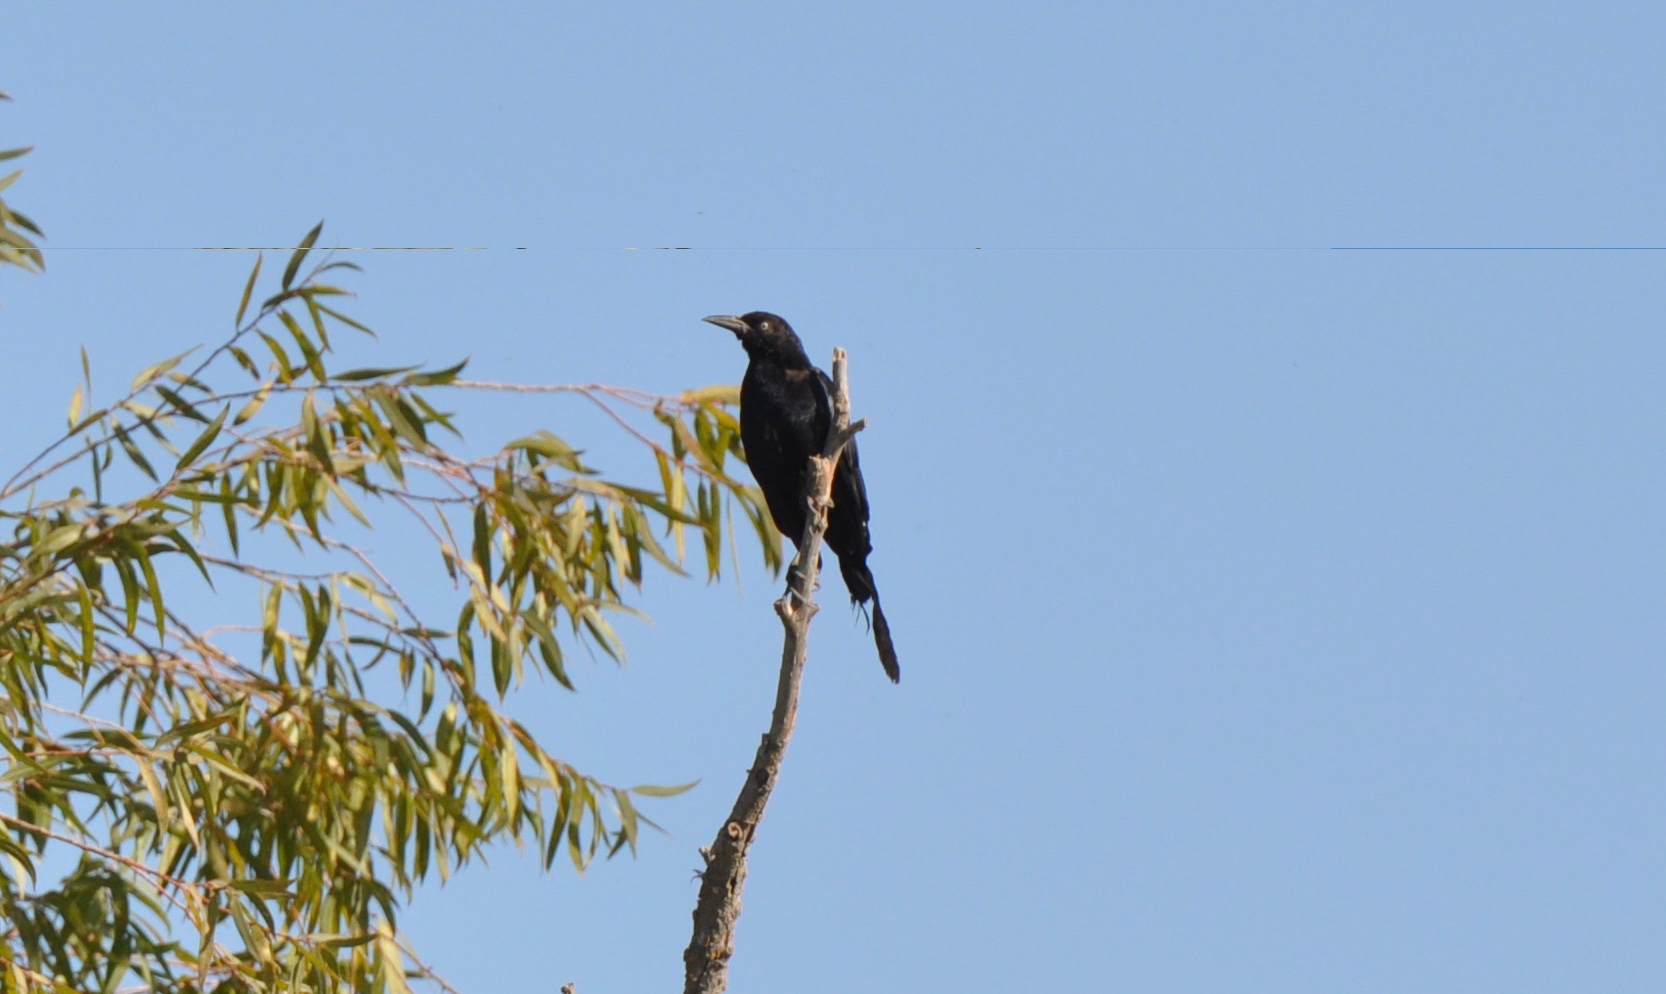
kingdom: Animalia
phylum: Chordata
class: Aves
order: Passeriformes
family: Icteridae
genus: Quiscalus
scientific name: Quiscalus mexicanus
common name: Great-tailed grackle
